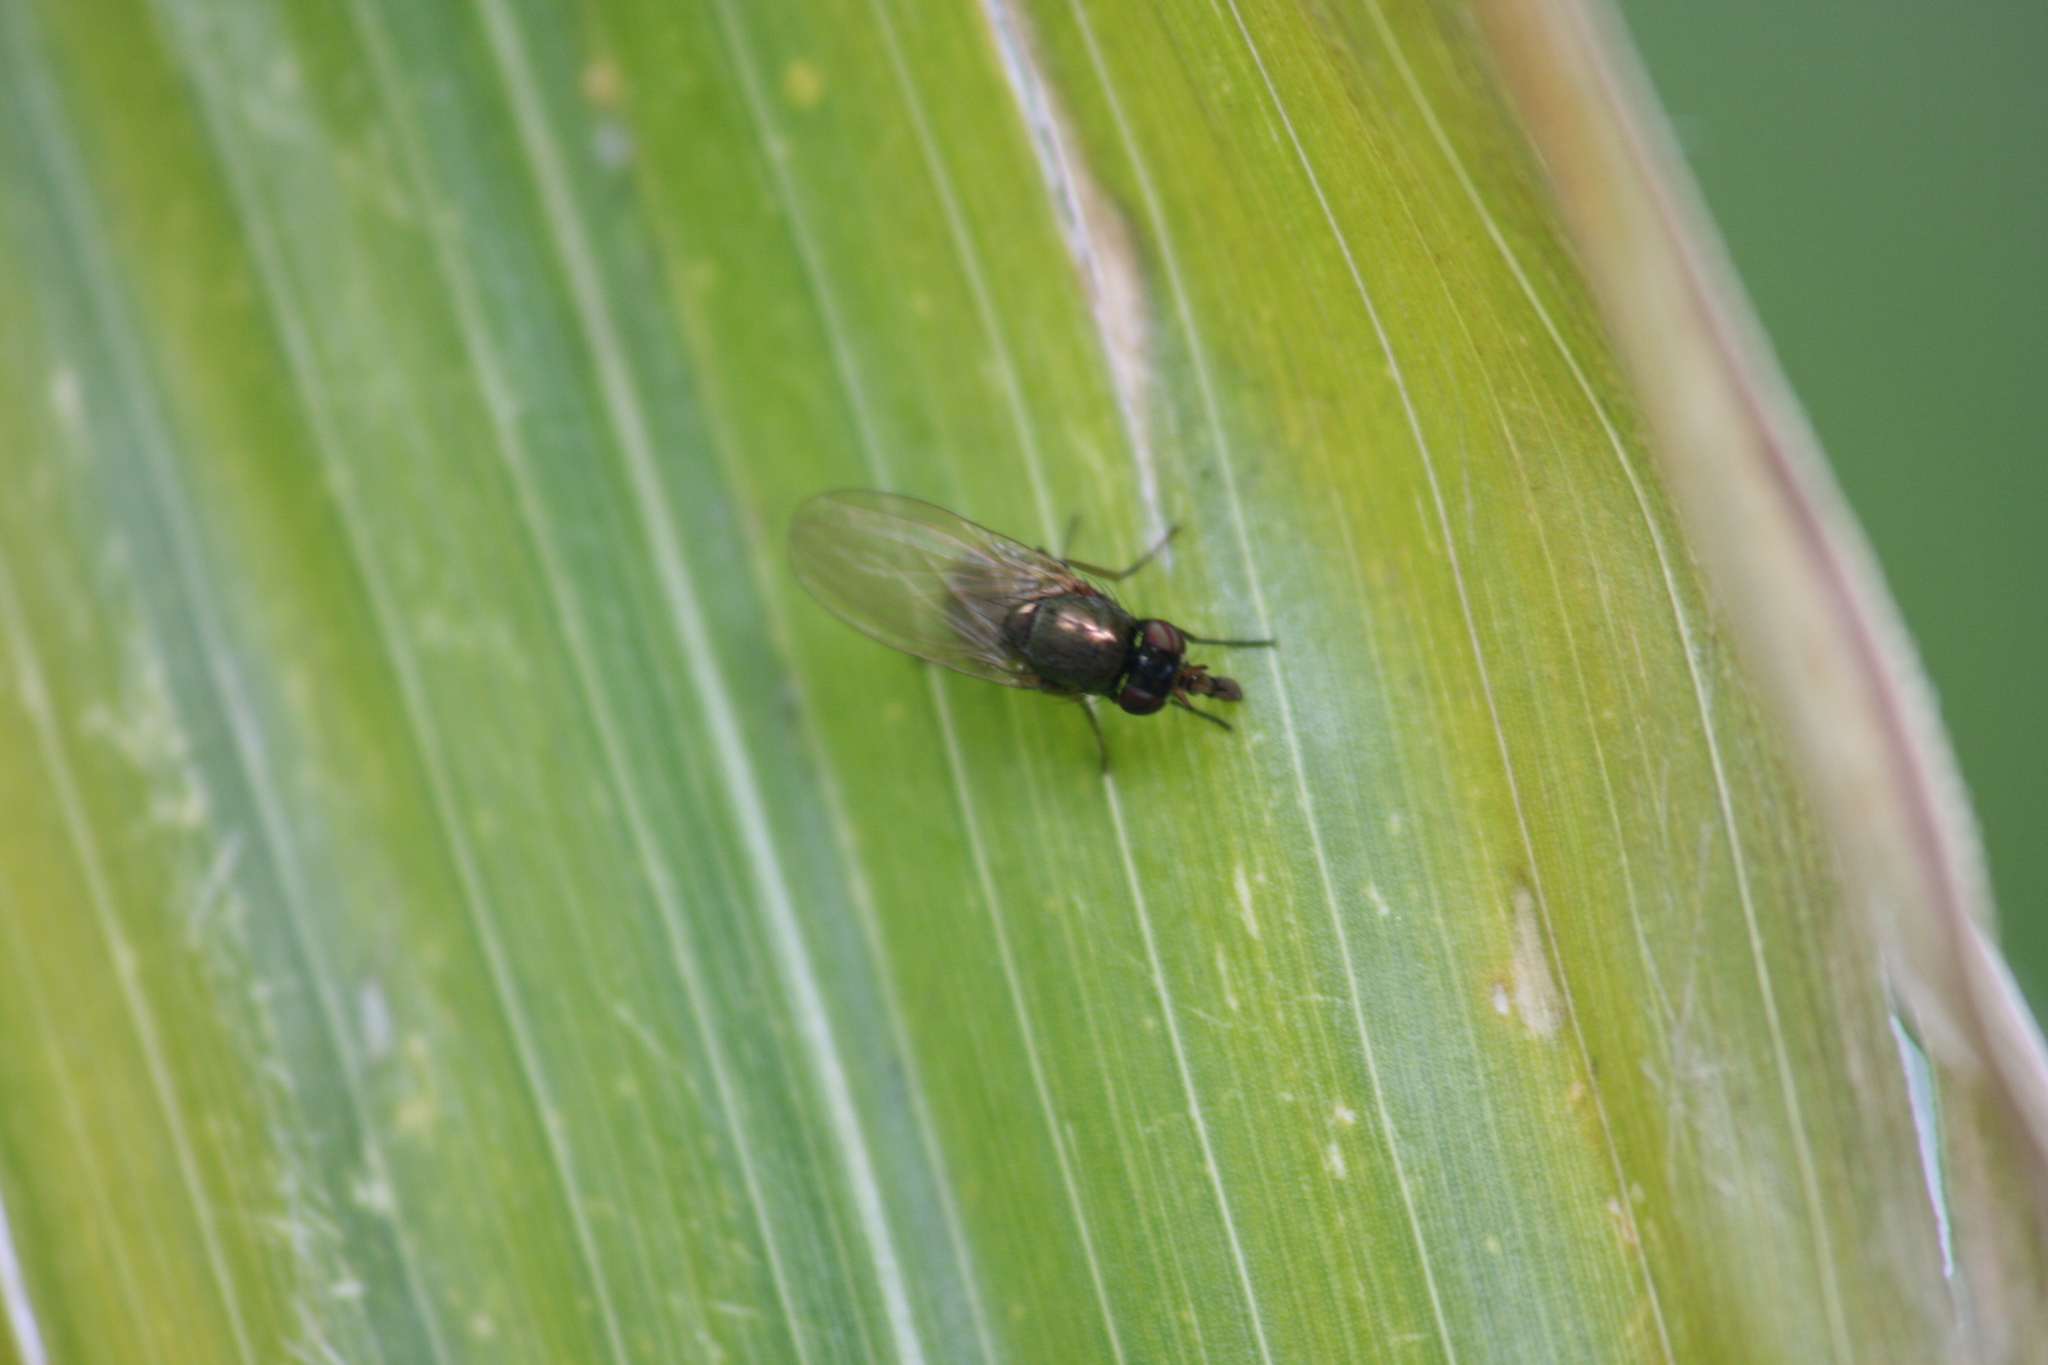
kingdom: Animalia
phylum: Arthropoda
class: Insecta
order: Diptera
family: Lauxaniidae
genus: Calliopum
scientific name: Calliopum
